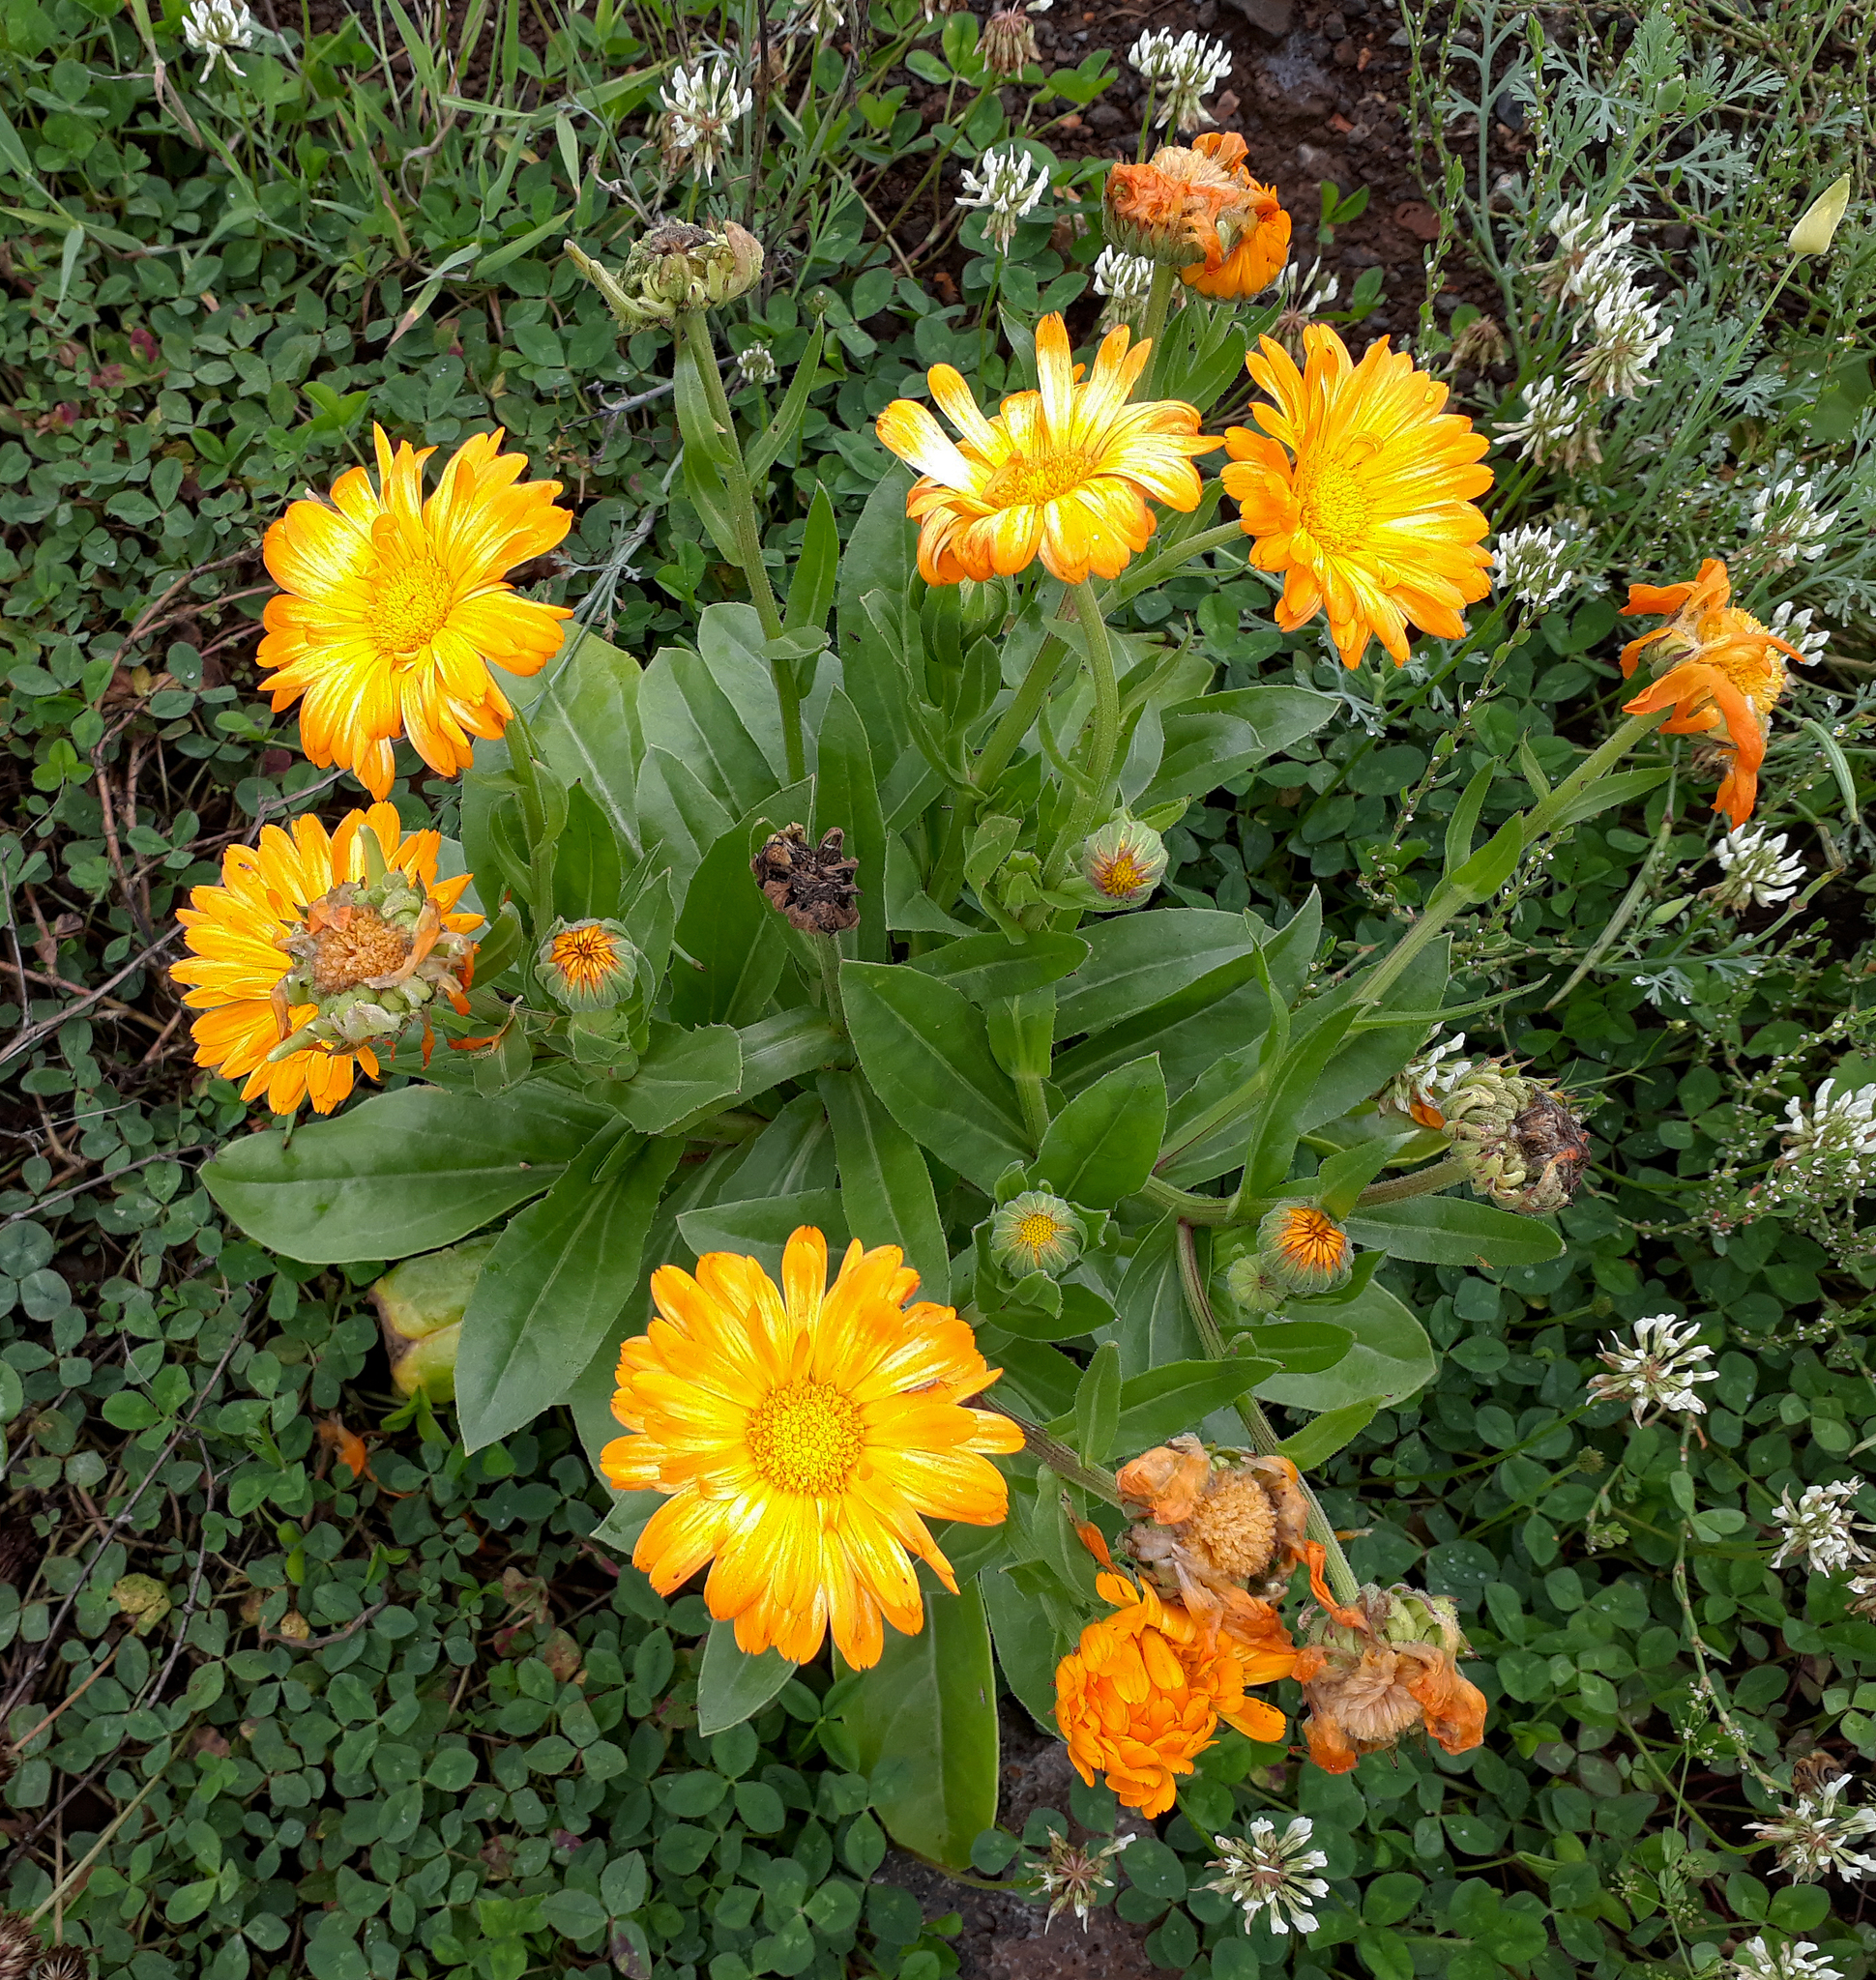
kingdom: Plantae
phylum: Tracheophyta
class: Magnoliopsida
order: Asterales
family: Asteraceae
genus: Calendula
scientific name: Calendula officinalis
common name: Pot marigold
